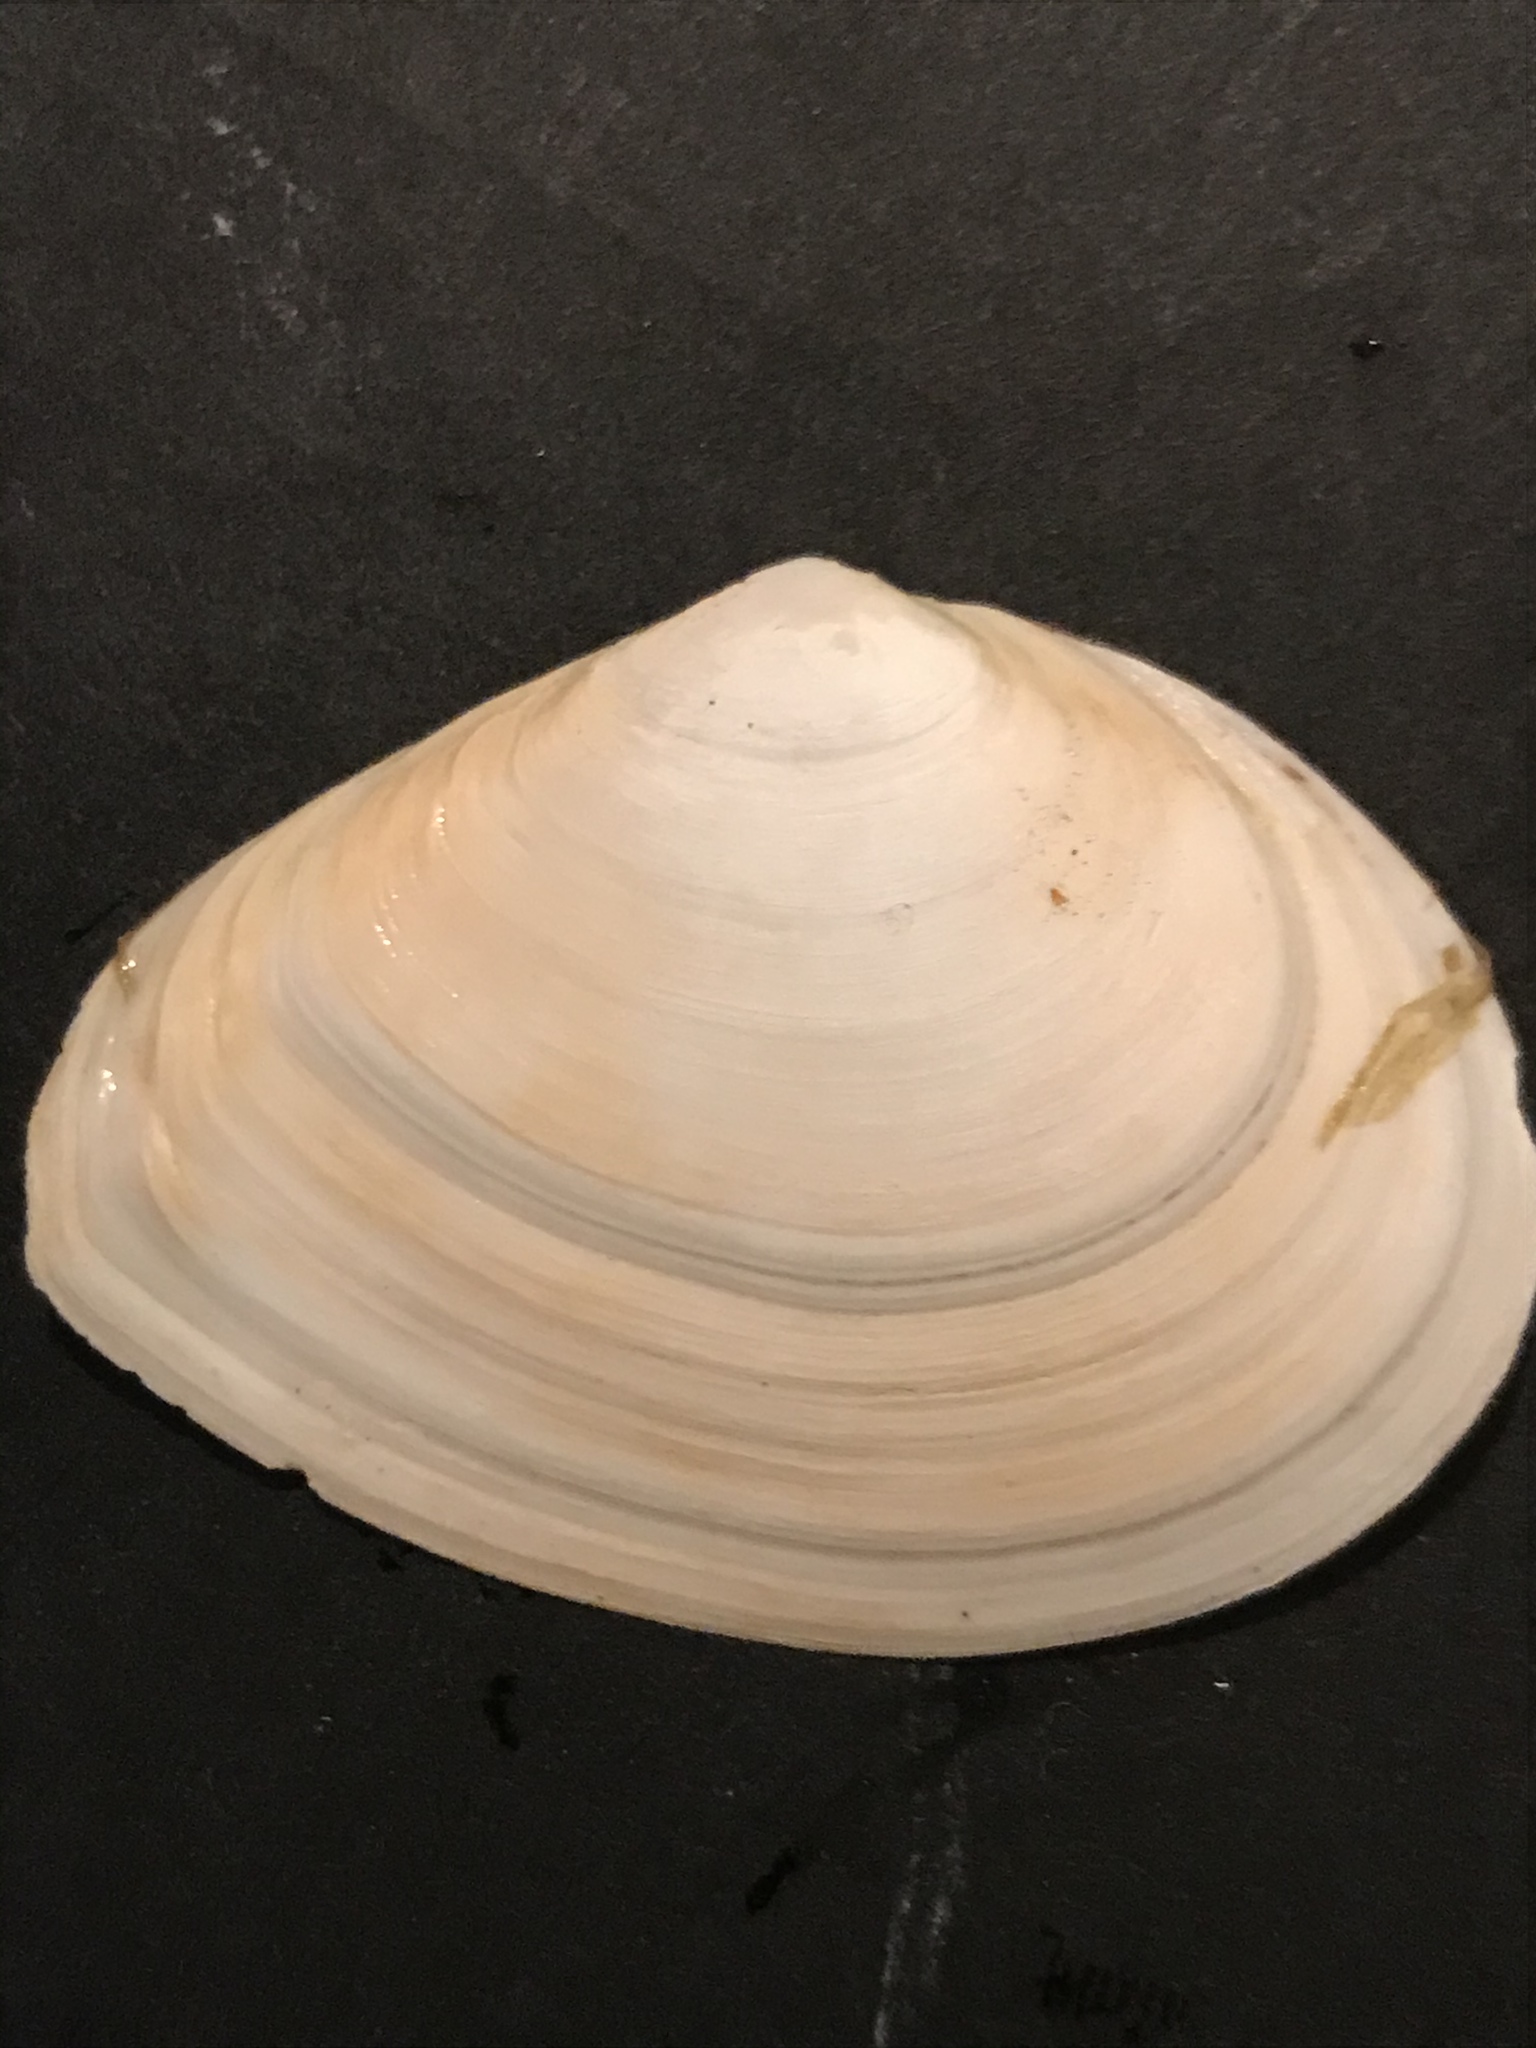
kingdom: Animalia
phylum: Mollusca
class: Bivalvia
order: Cardiida
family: Tellinidae
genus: Macoma
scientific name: Macoma nasuta
